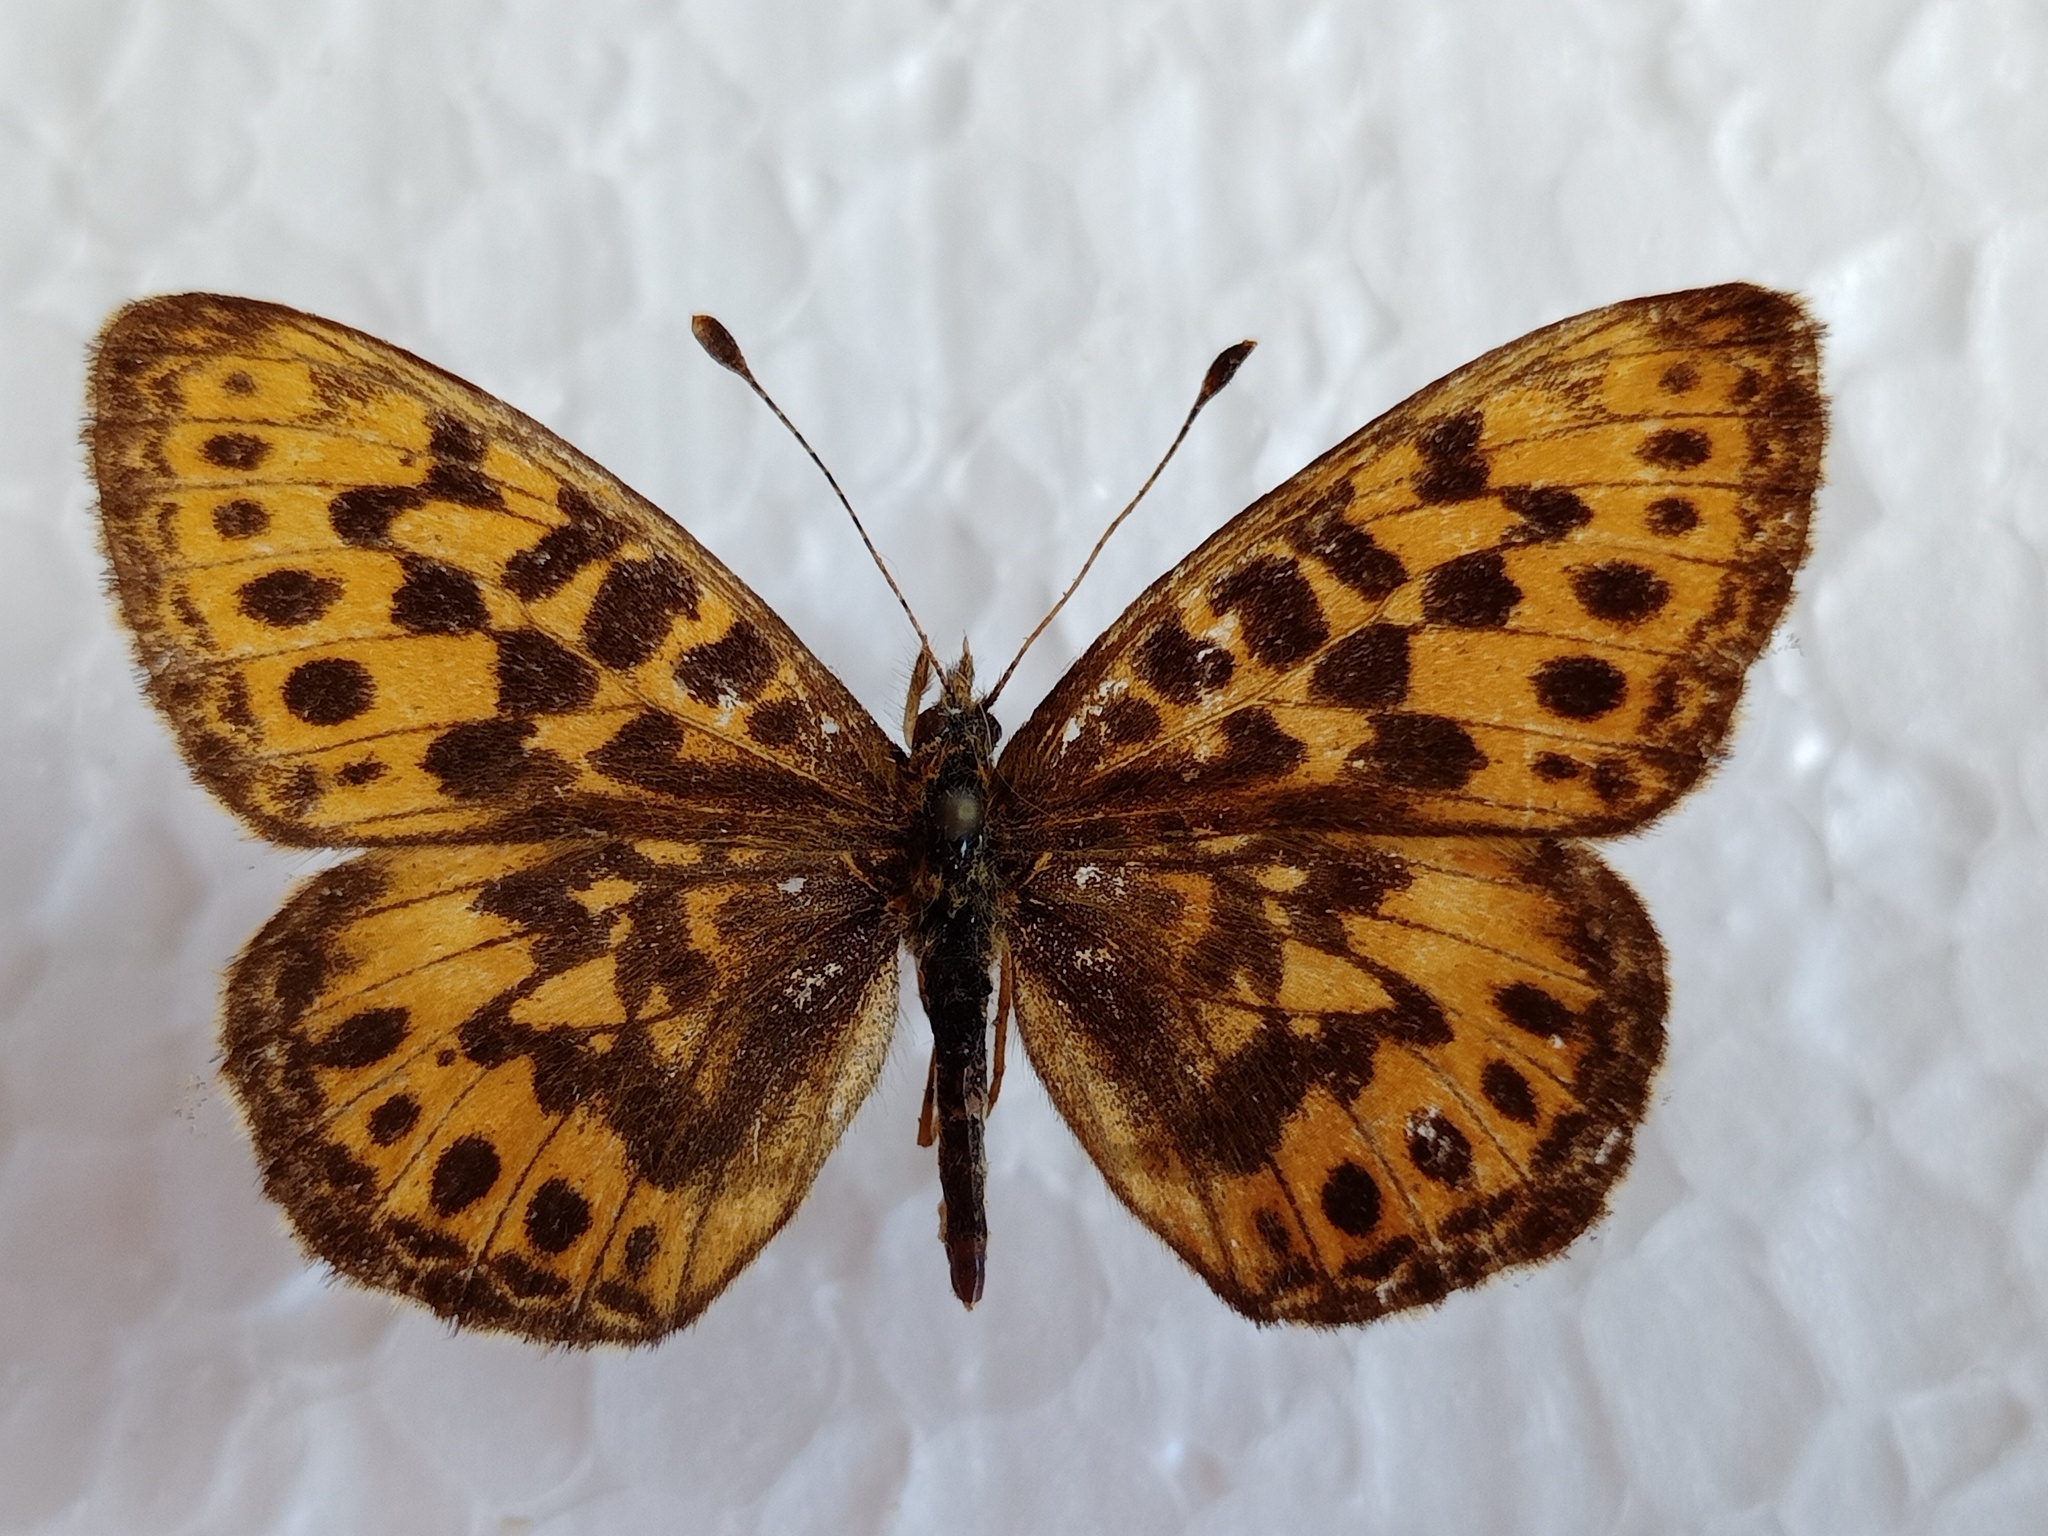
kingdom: Animalia
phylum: Arthropoda
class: Insecta
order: Lepidoptera
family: Nymphalidae
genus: Boloria
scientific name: Boloria thore
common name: Thor's fritillary
